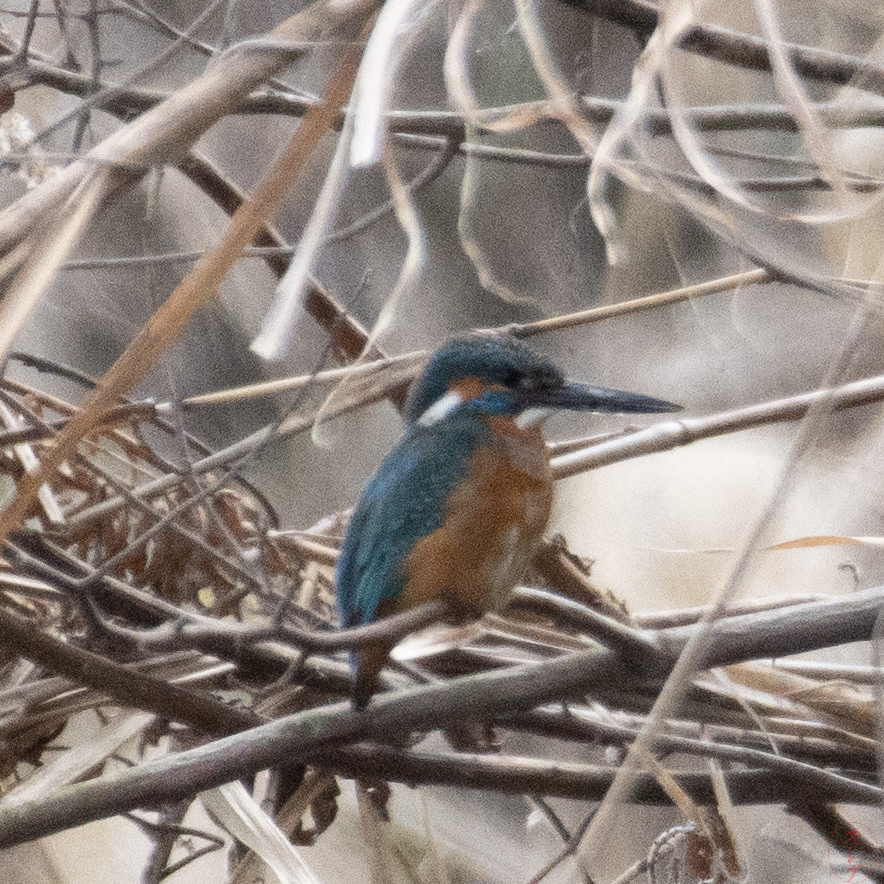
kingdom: Animalia
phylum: Chordata
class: Aves
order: Coraciiformes
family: Alcedinidae
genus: Alcedo
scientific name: Alcedo atthis
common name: Common kingfisher
